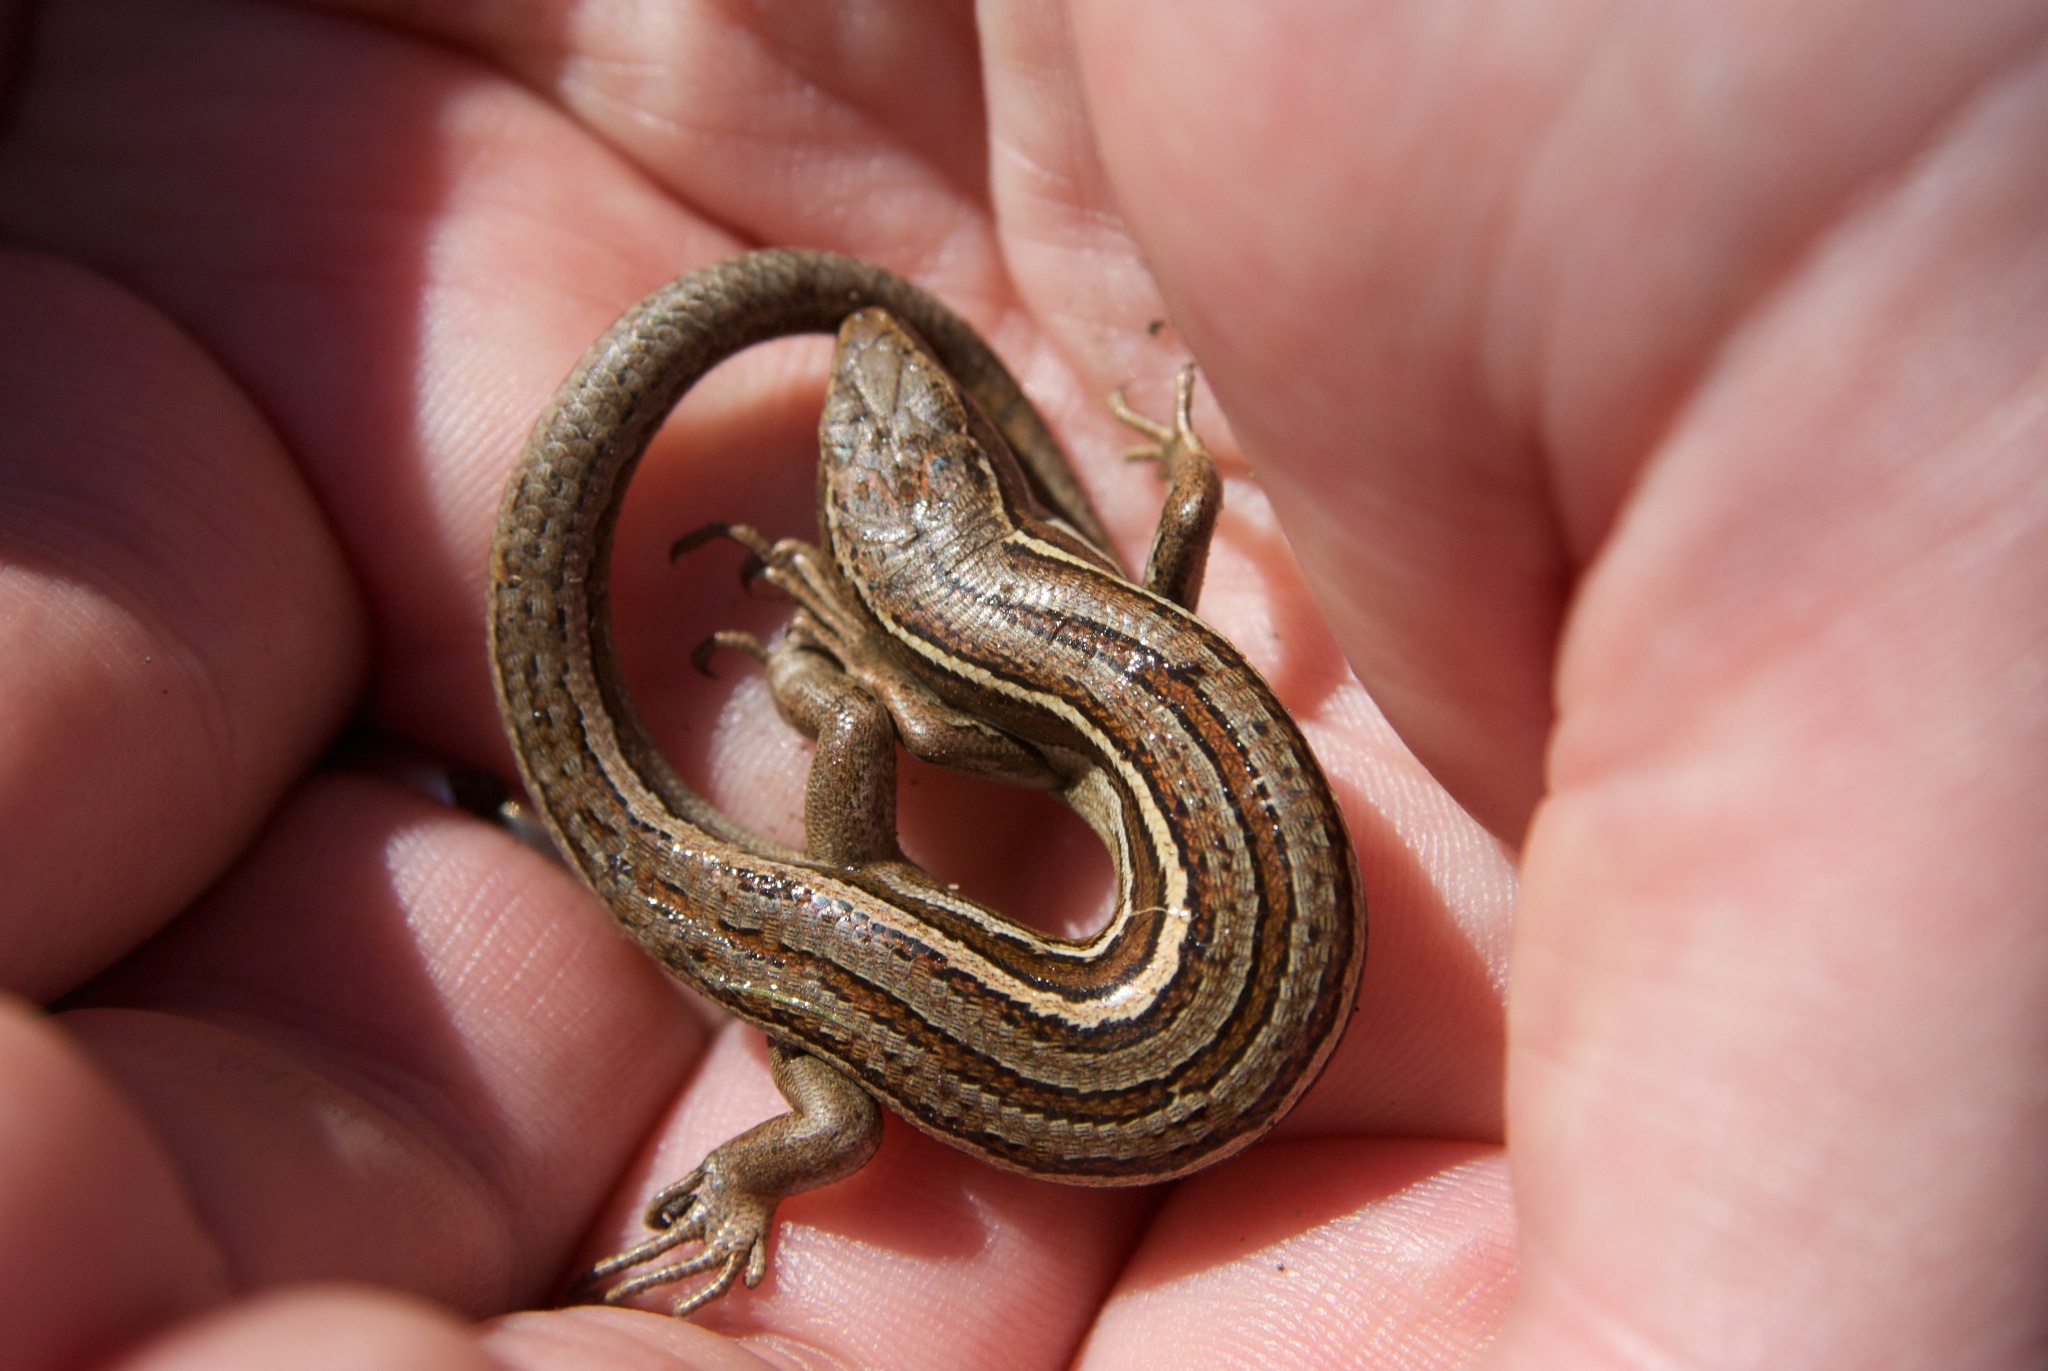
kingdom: Animalia
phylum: Chordata
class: Squamata
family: Scincidae
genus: Oligosoma
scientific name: Oligosoma polychroma
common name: Common new zealand skink
